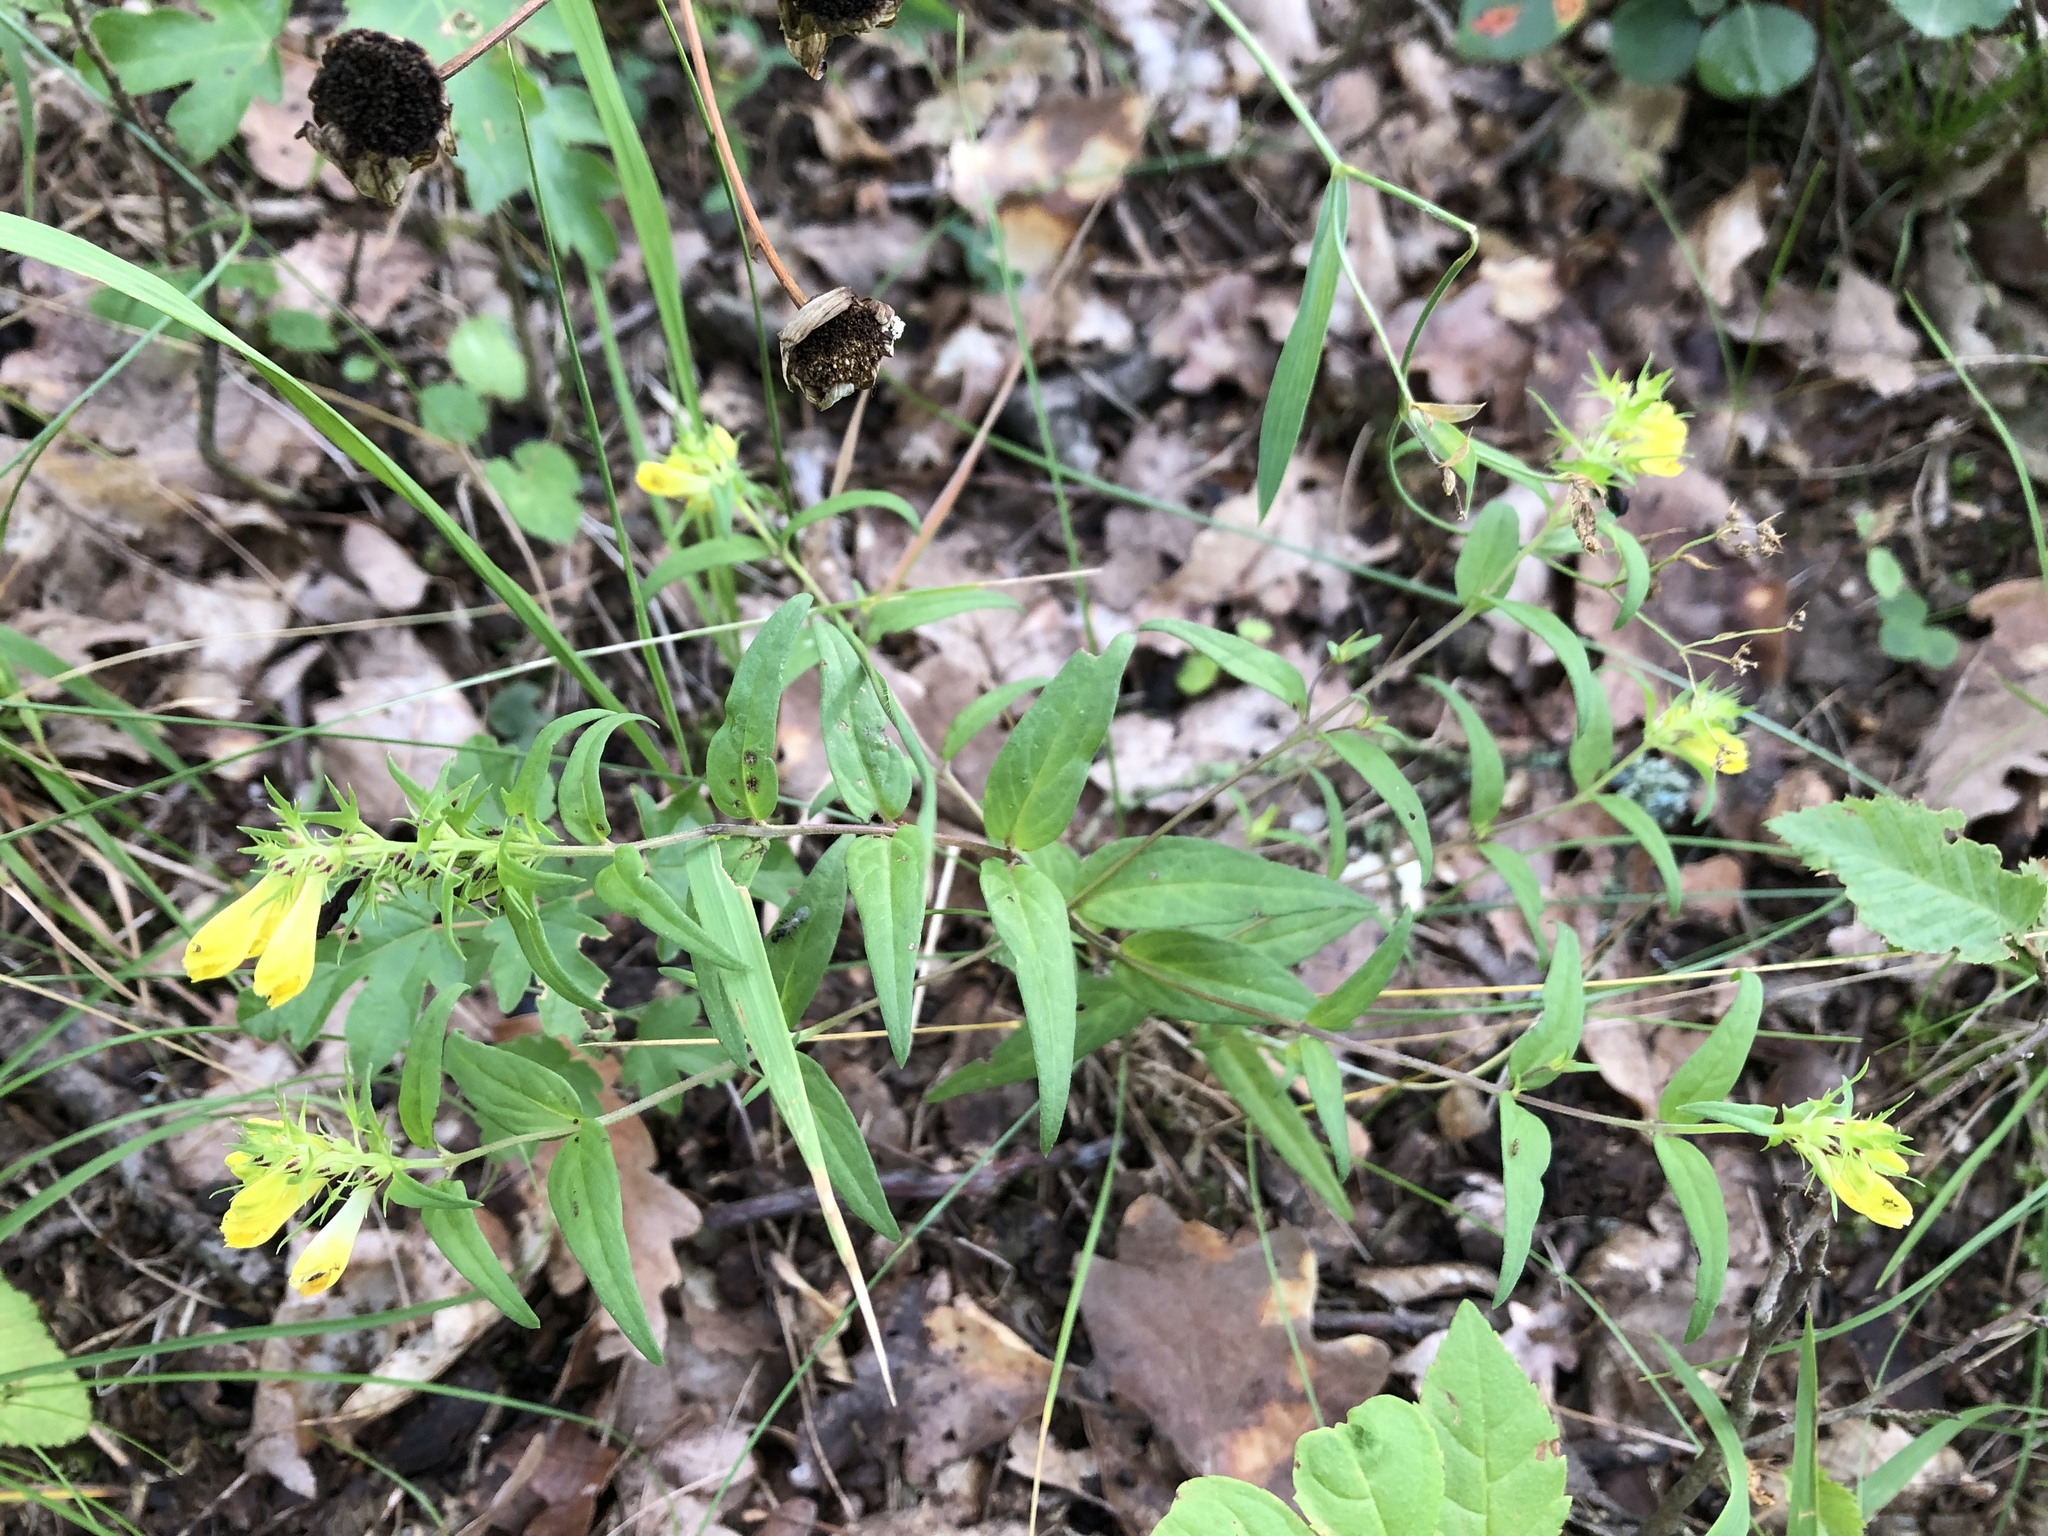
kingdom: Plantae
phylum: Tracheophyta
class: Magnoliopsida
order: Lamiales
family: Orobanchaceae
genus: Melampyrum
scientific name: Melampyrum pratense
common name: Common cow-wheat
